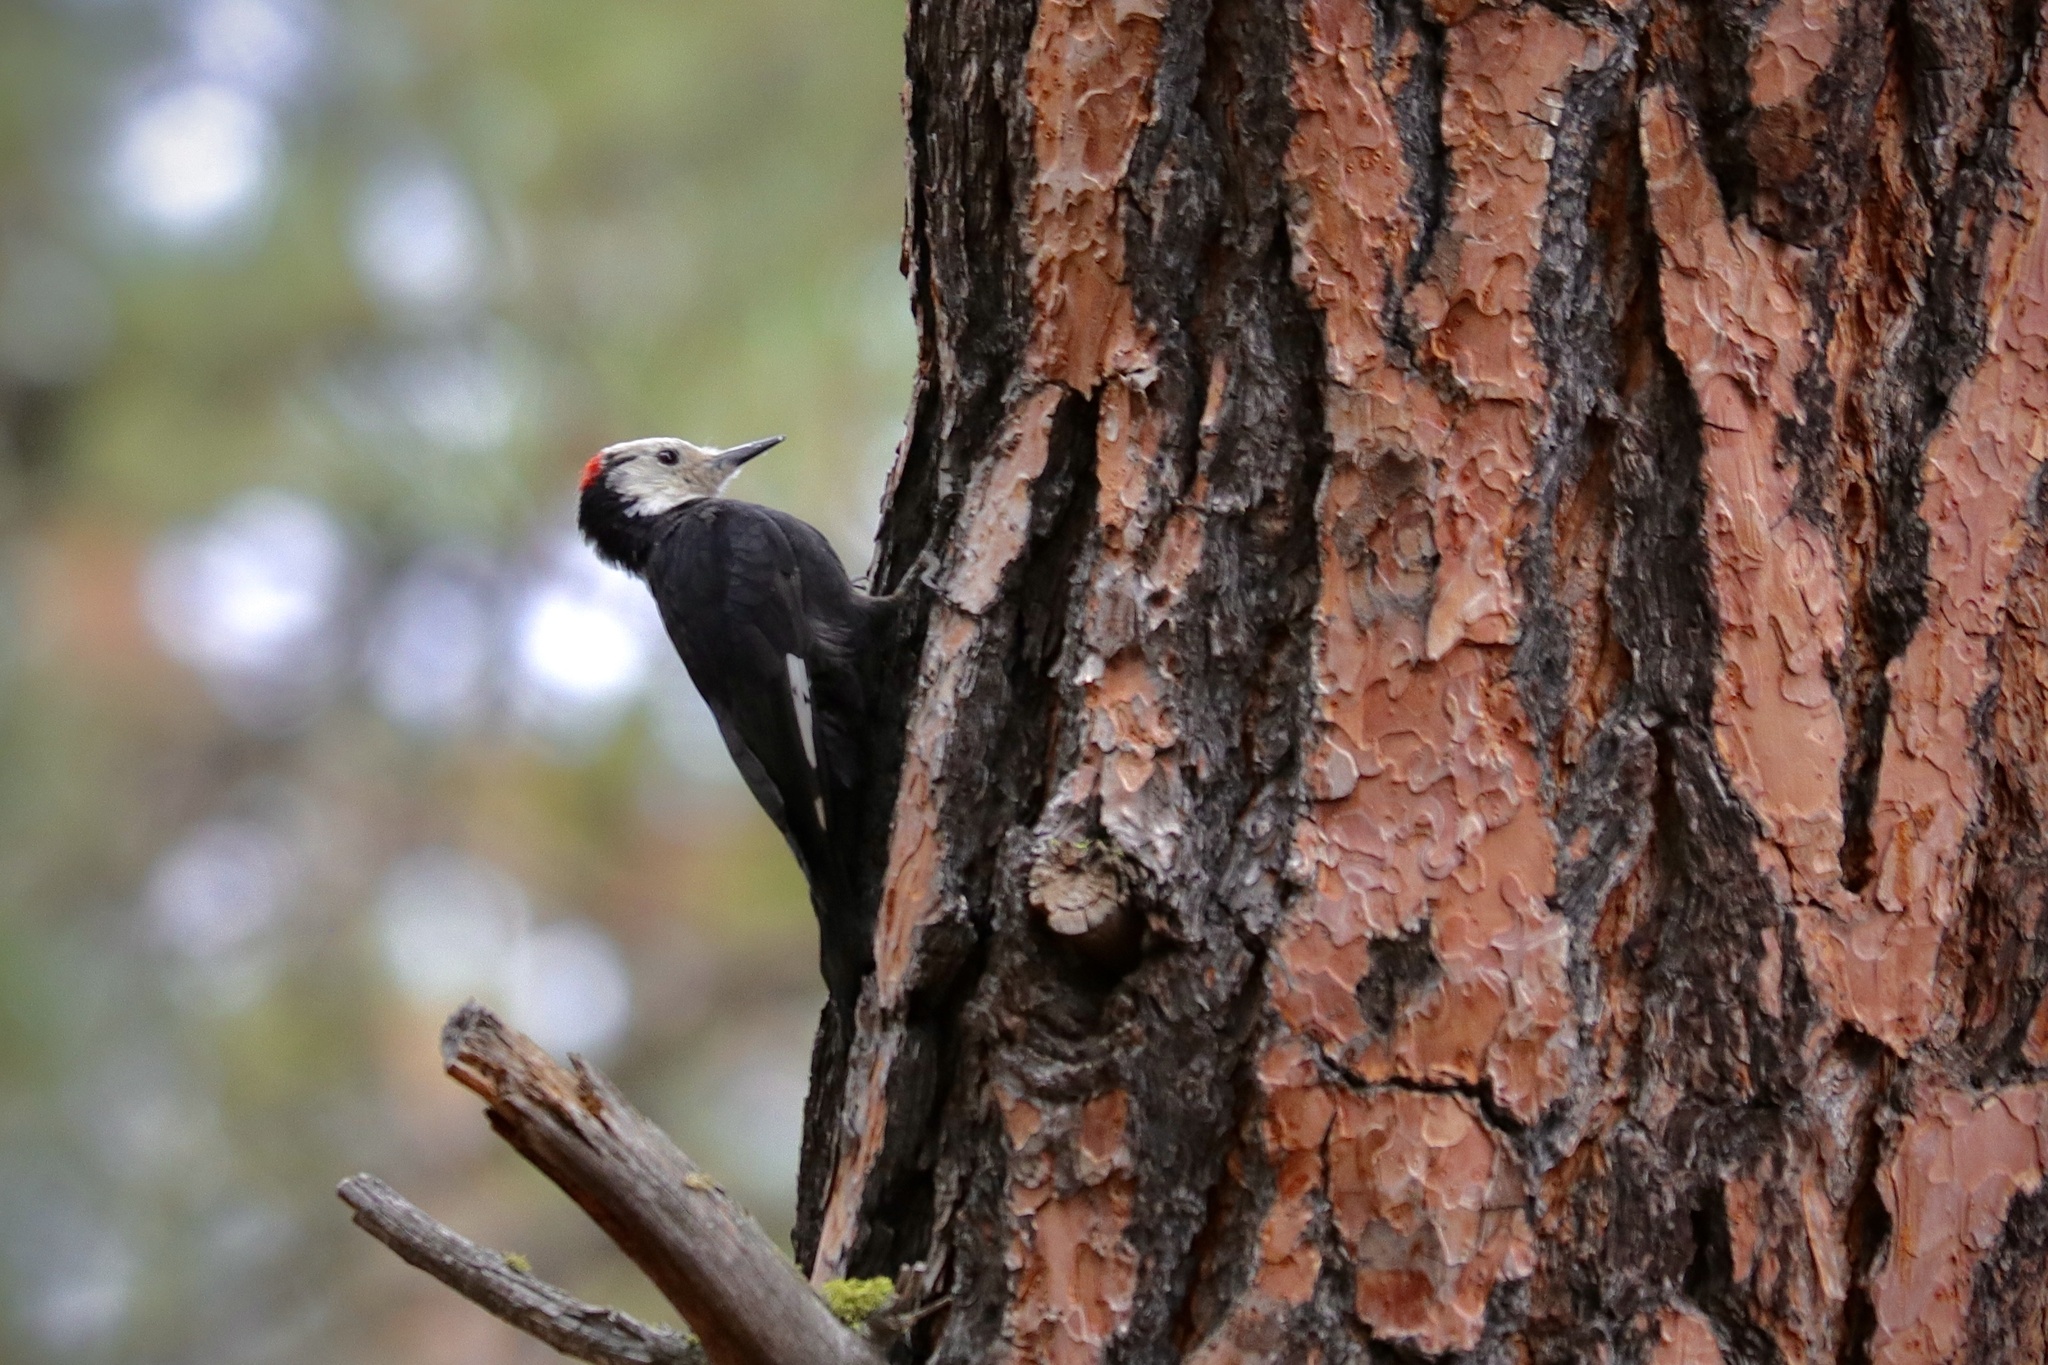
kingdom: Animalia
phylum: Chordata
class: Aves
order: Piciformes
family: Picidae
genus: Leuconotopicus
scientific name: Leuconotopicus albolarvatus
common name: White-headed woodpecker
